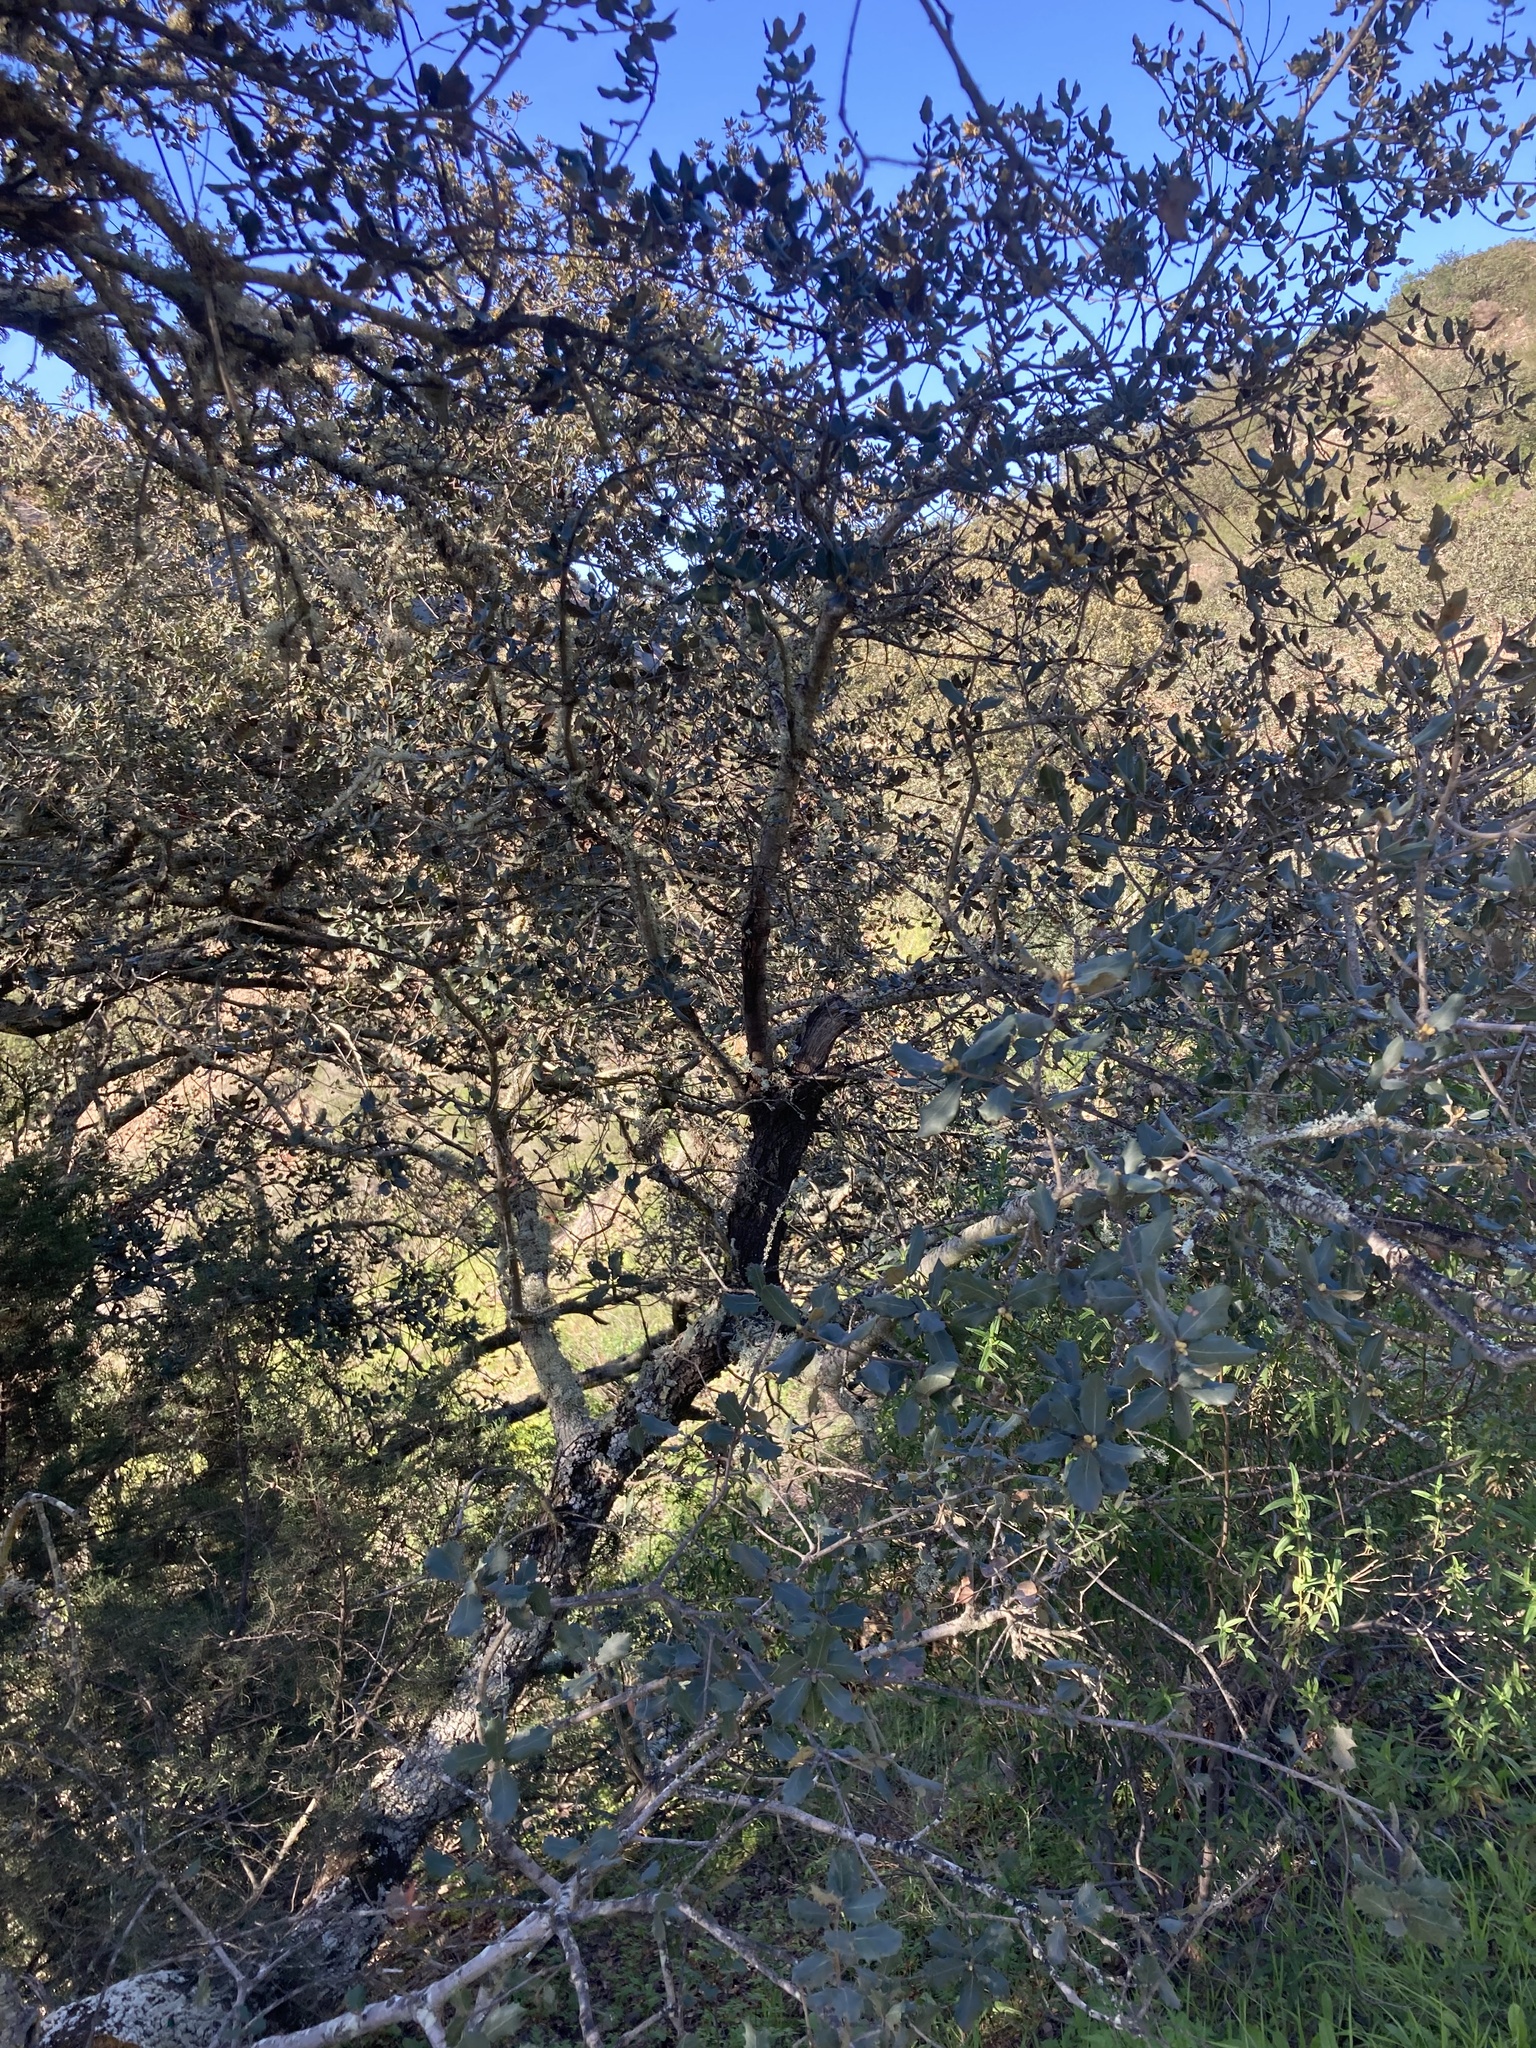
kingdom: Plantae
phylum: Tracheophyta
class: Magnoliopsida
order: Fagales
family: Fagaceae
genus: Quercus
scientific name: Quercus rotundifolia
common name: Holm oak
